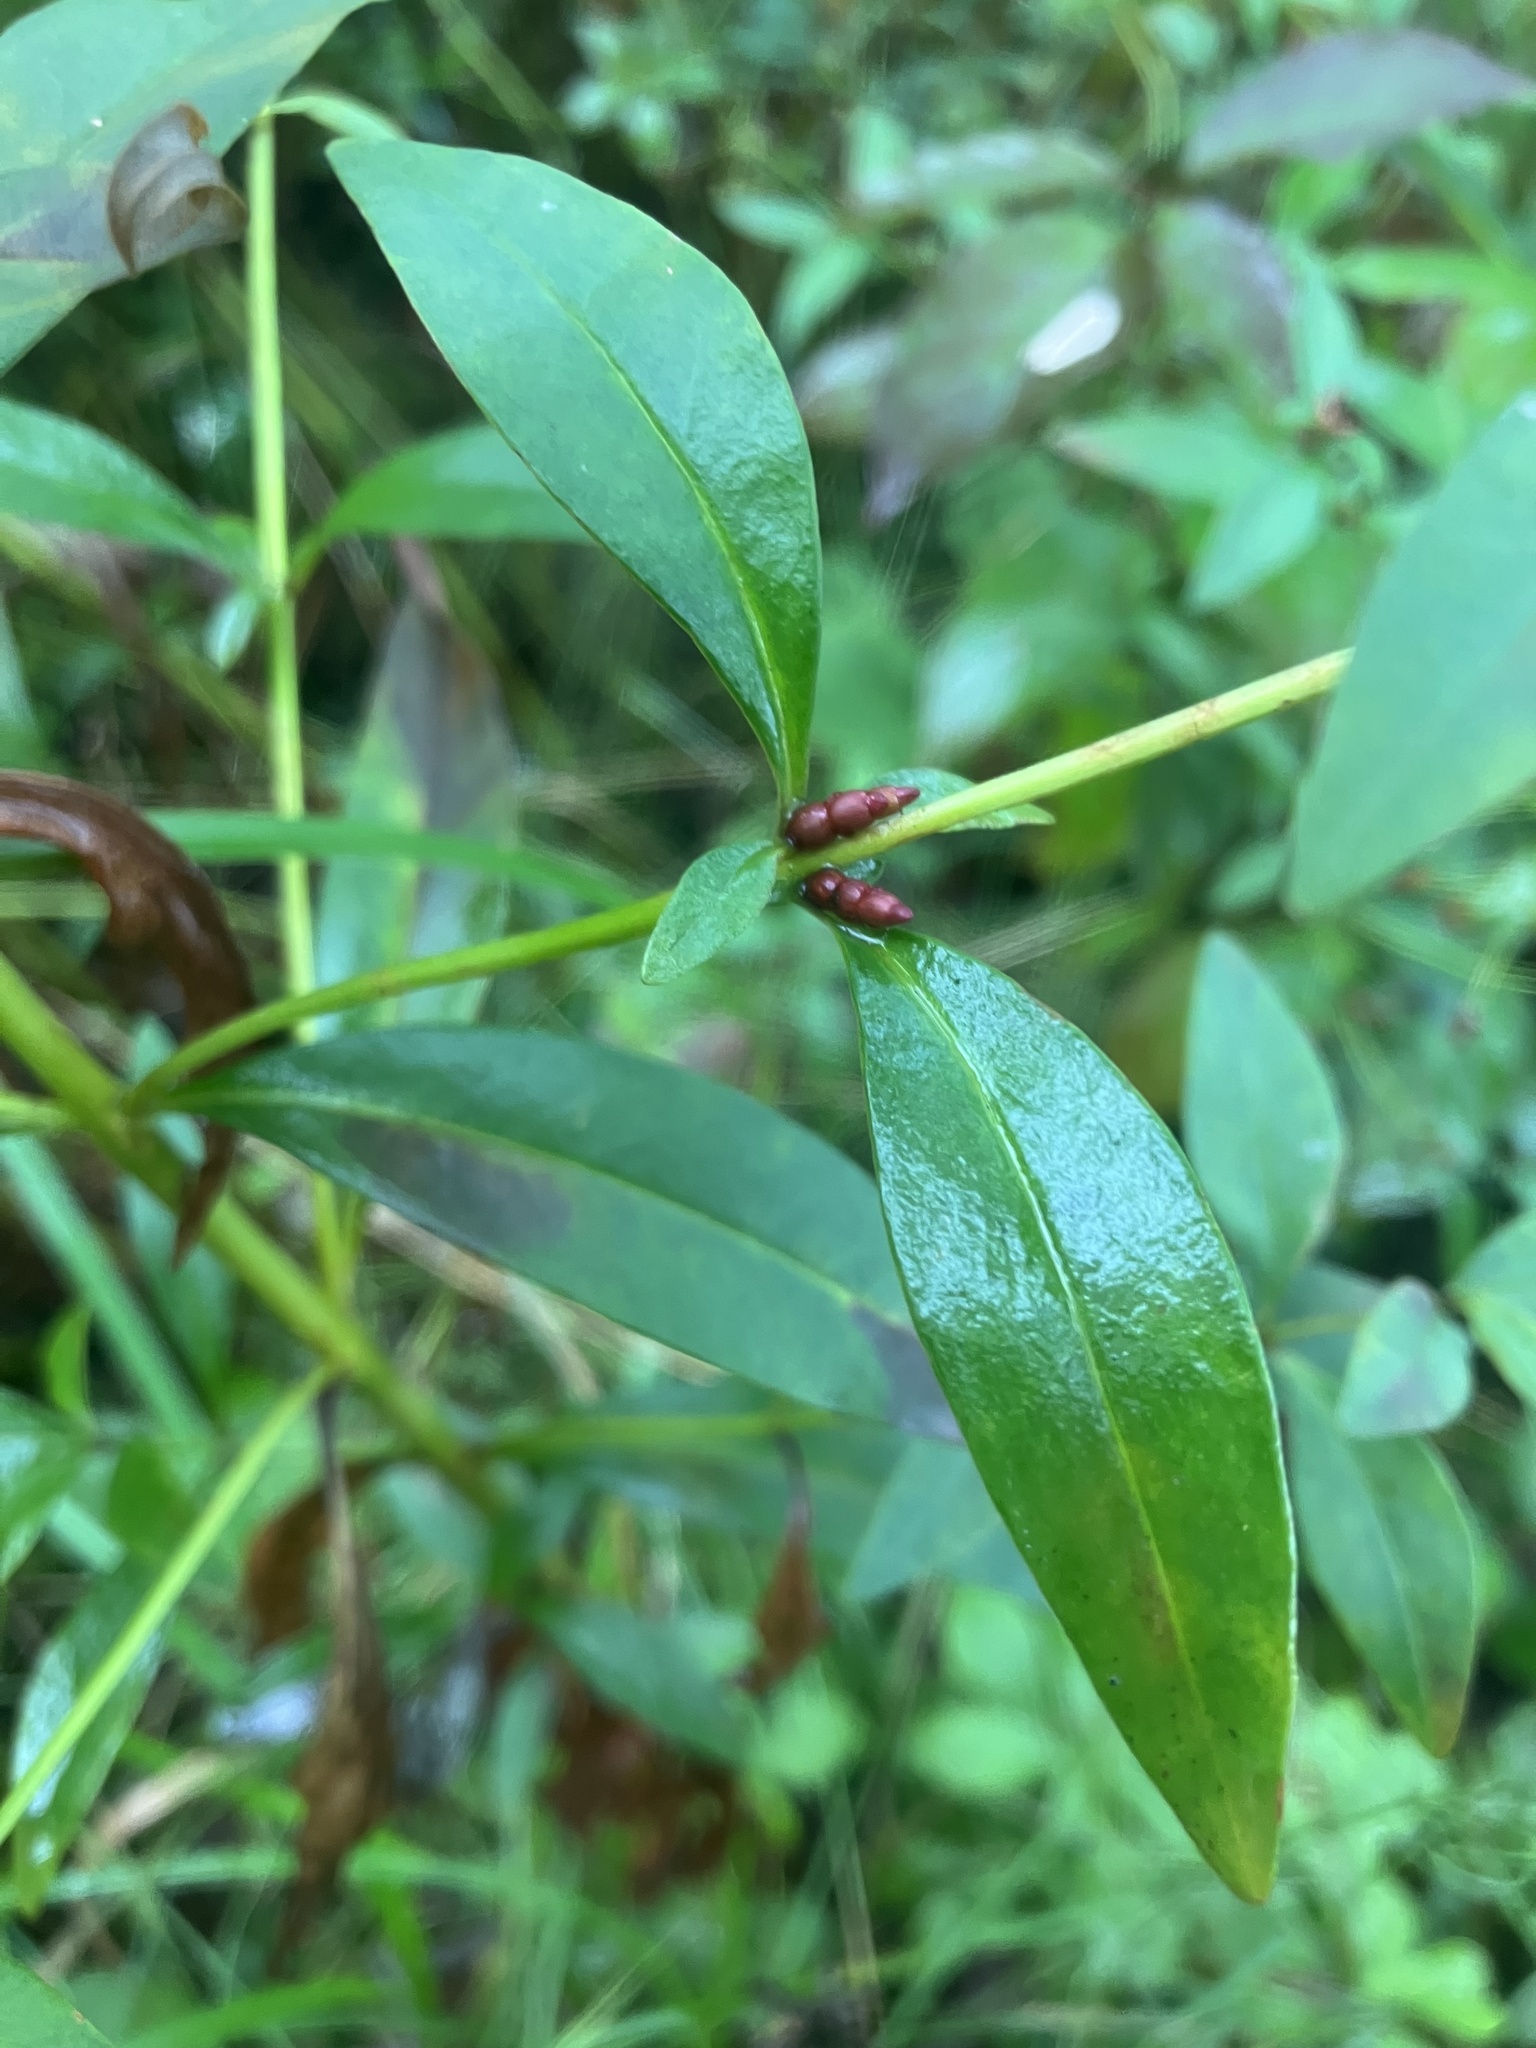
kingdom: Plantae
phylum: Tracheophyta
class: Magnoliopsida
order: Ericales
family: Primulaceae
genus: Lysimachia
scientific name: Lysimachia terrestris
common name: Lake loosestrife
